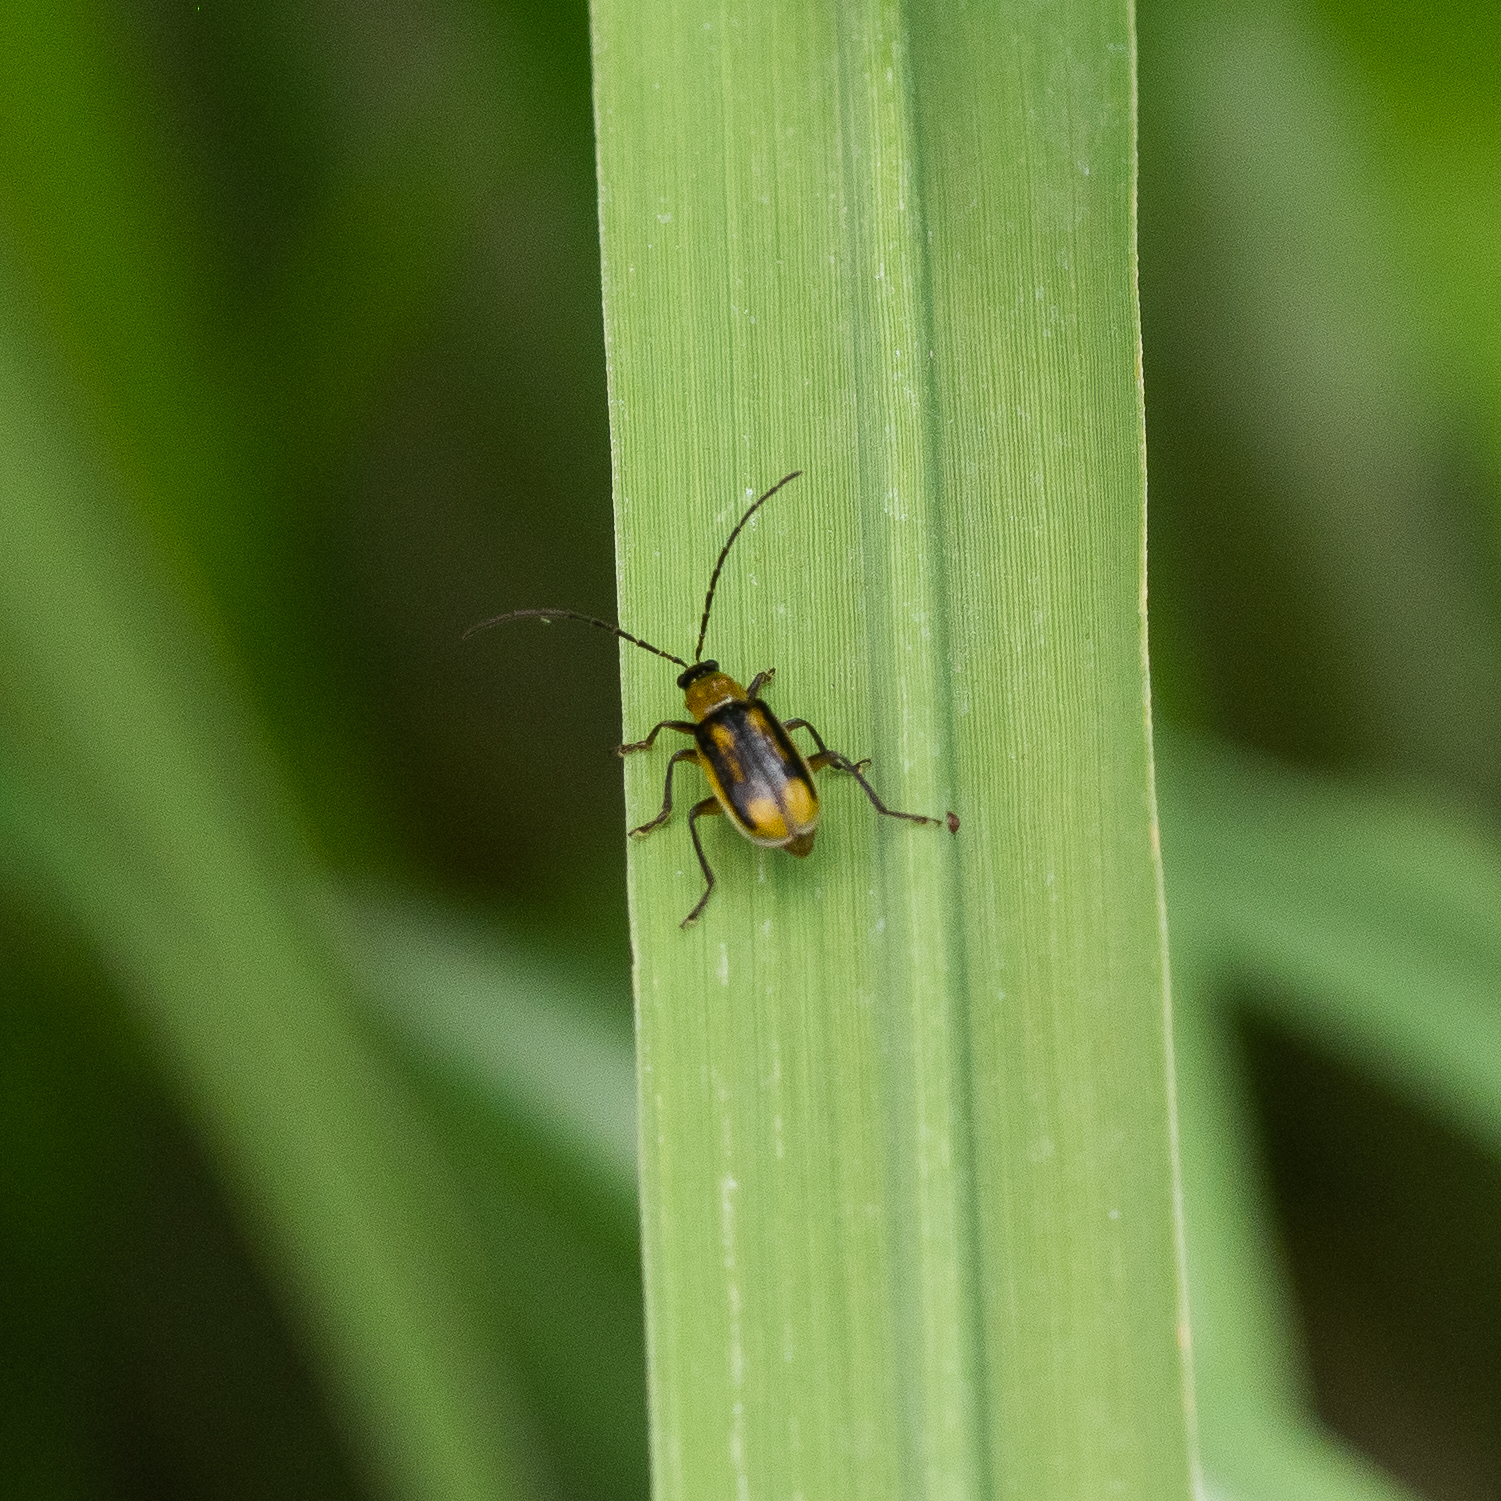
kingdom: Animalia
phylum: Arthropoda
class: Insecta
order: Coleoptera
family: Chrysomelidae
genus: Diabrotica
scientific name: Diabrotica virgifera
